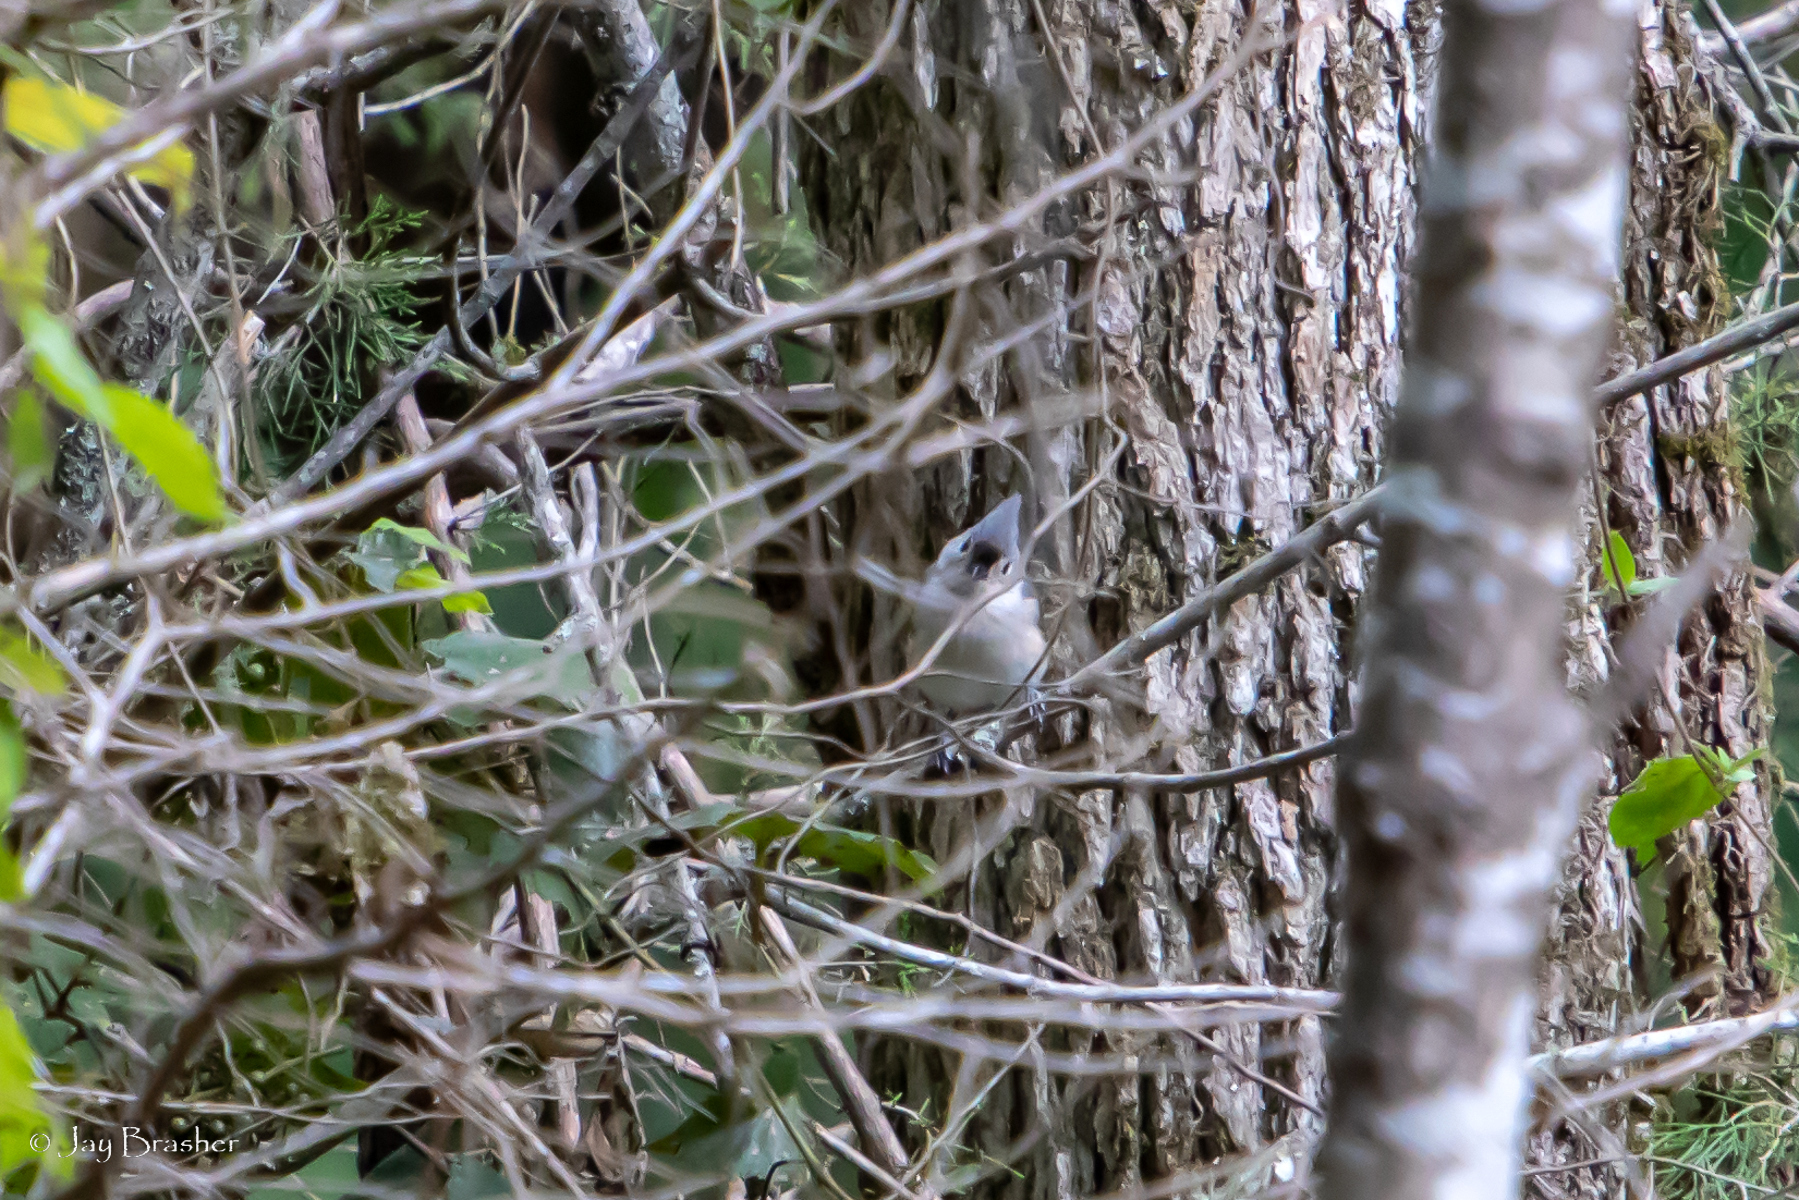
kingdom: Animalia
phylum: Chordata
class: Aves
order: Passeriformes
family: Paridae
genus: Baeolophus
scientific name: Baeolophus bicolor
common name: Tufted titmouse
